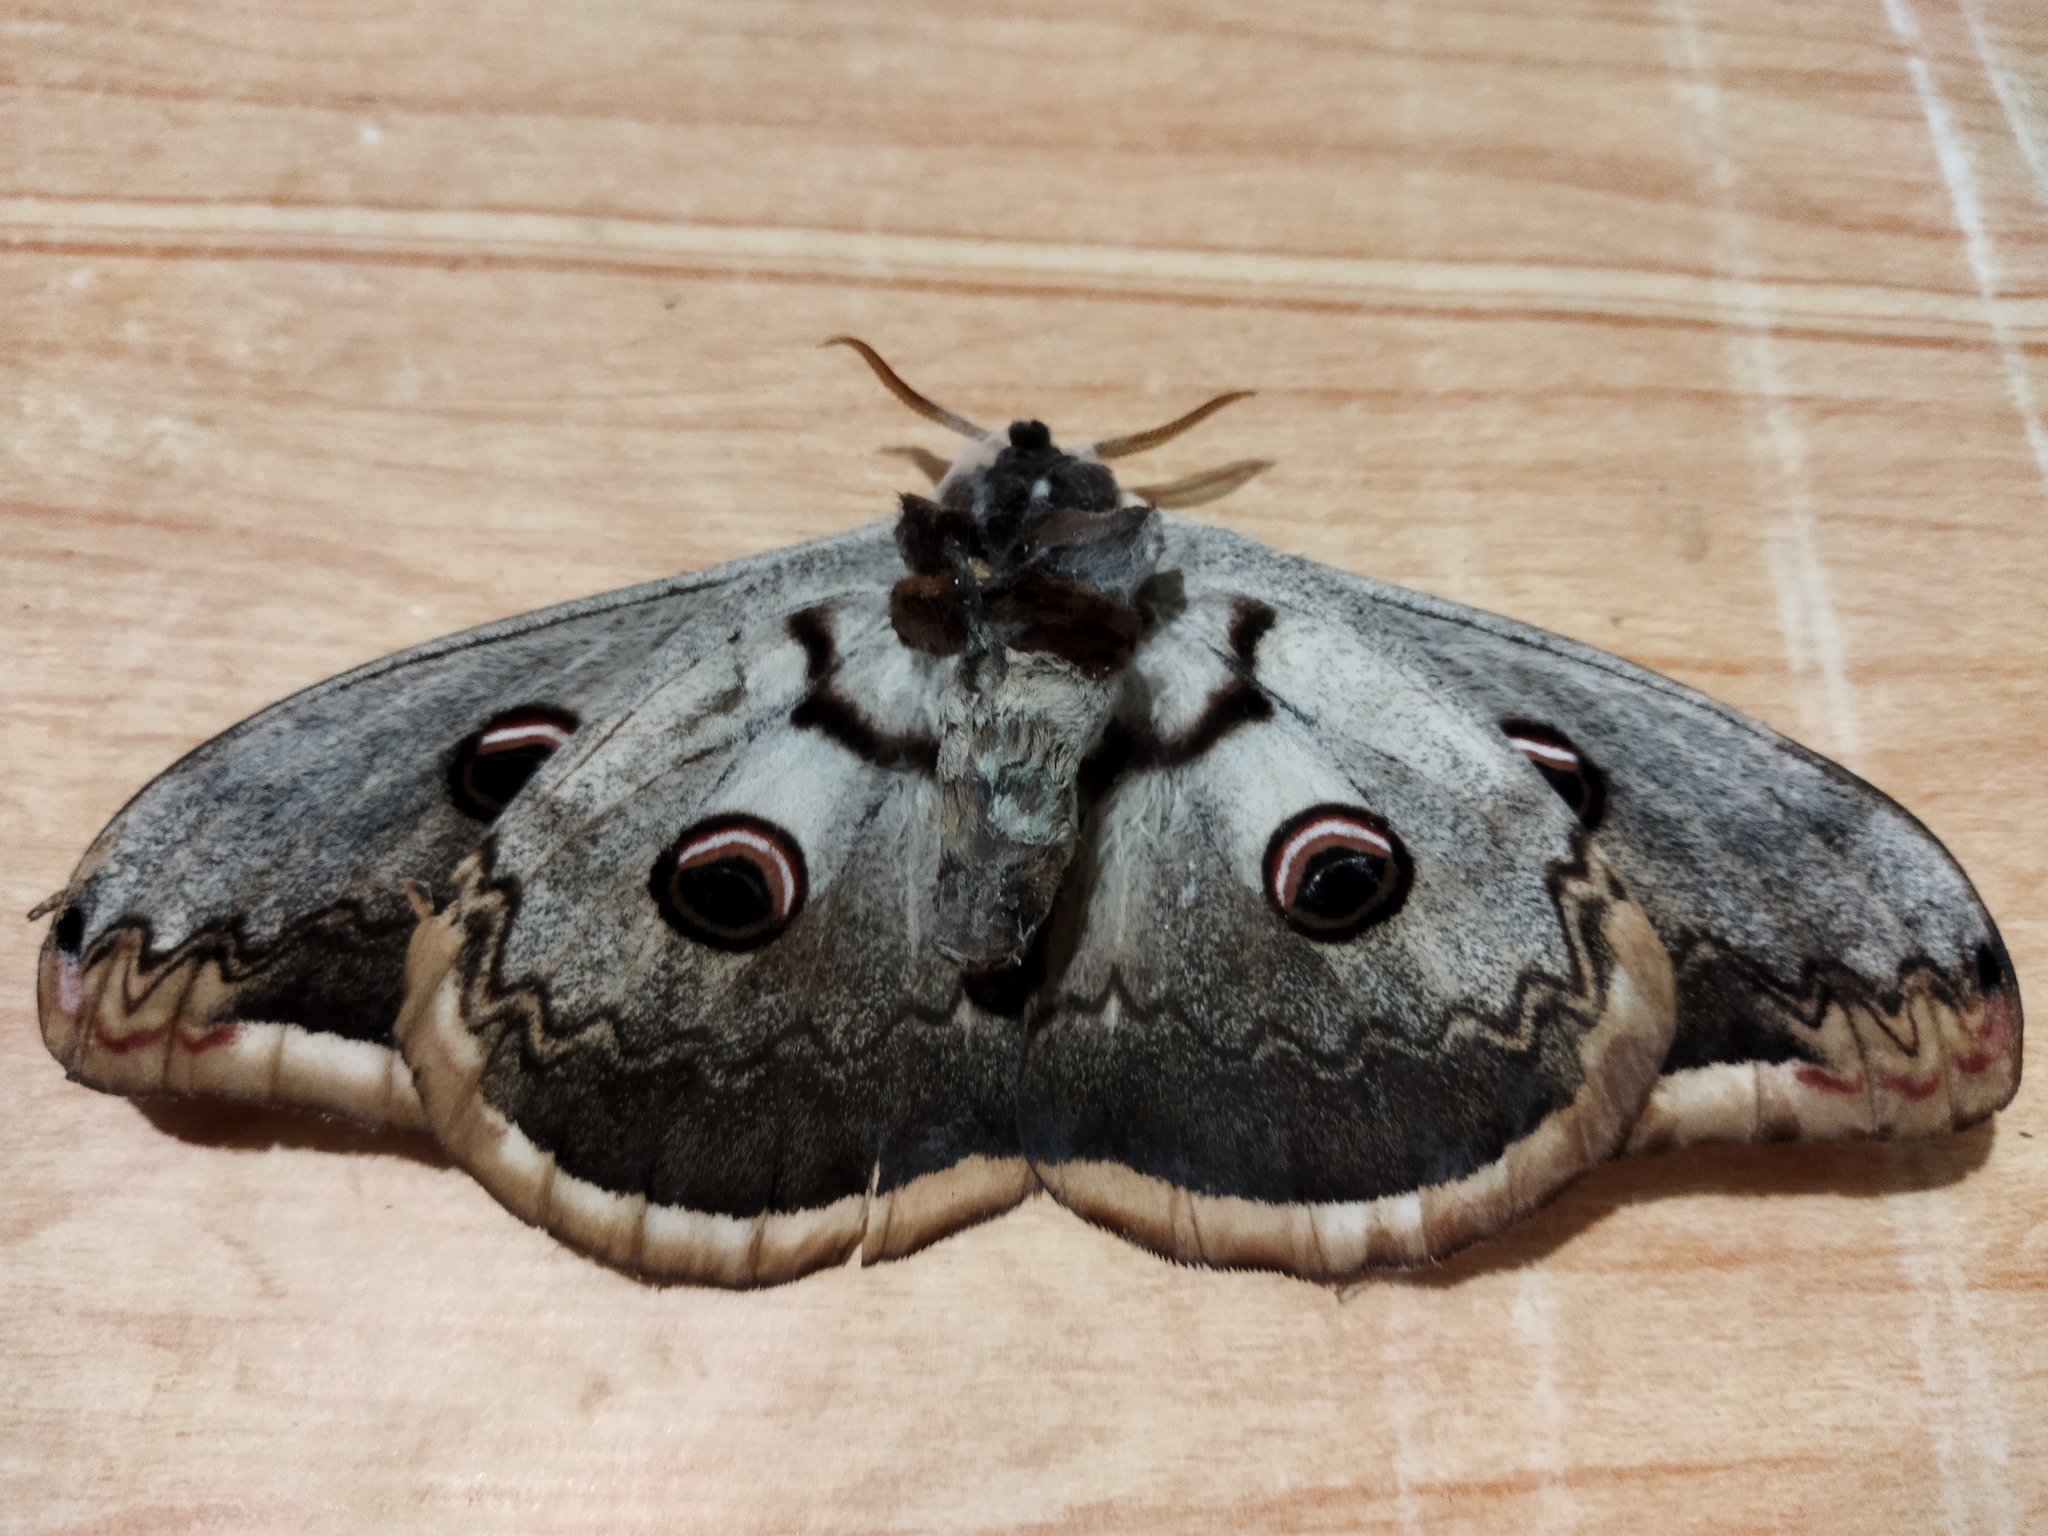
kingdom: Animalia
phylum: Arthropoda
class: Insecta
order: Lepidoptera
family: Saturniidae
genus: Saturnia
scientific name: Saturnia pyri
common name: Great peacock moth
